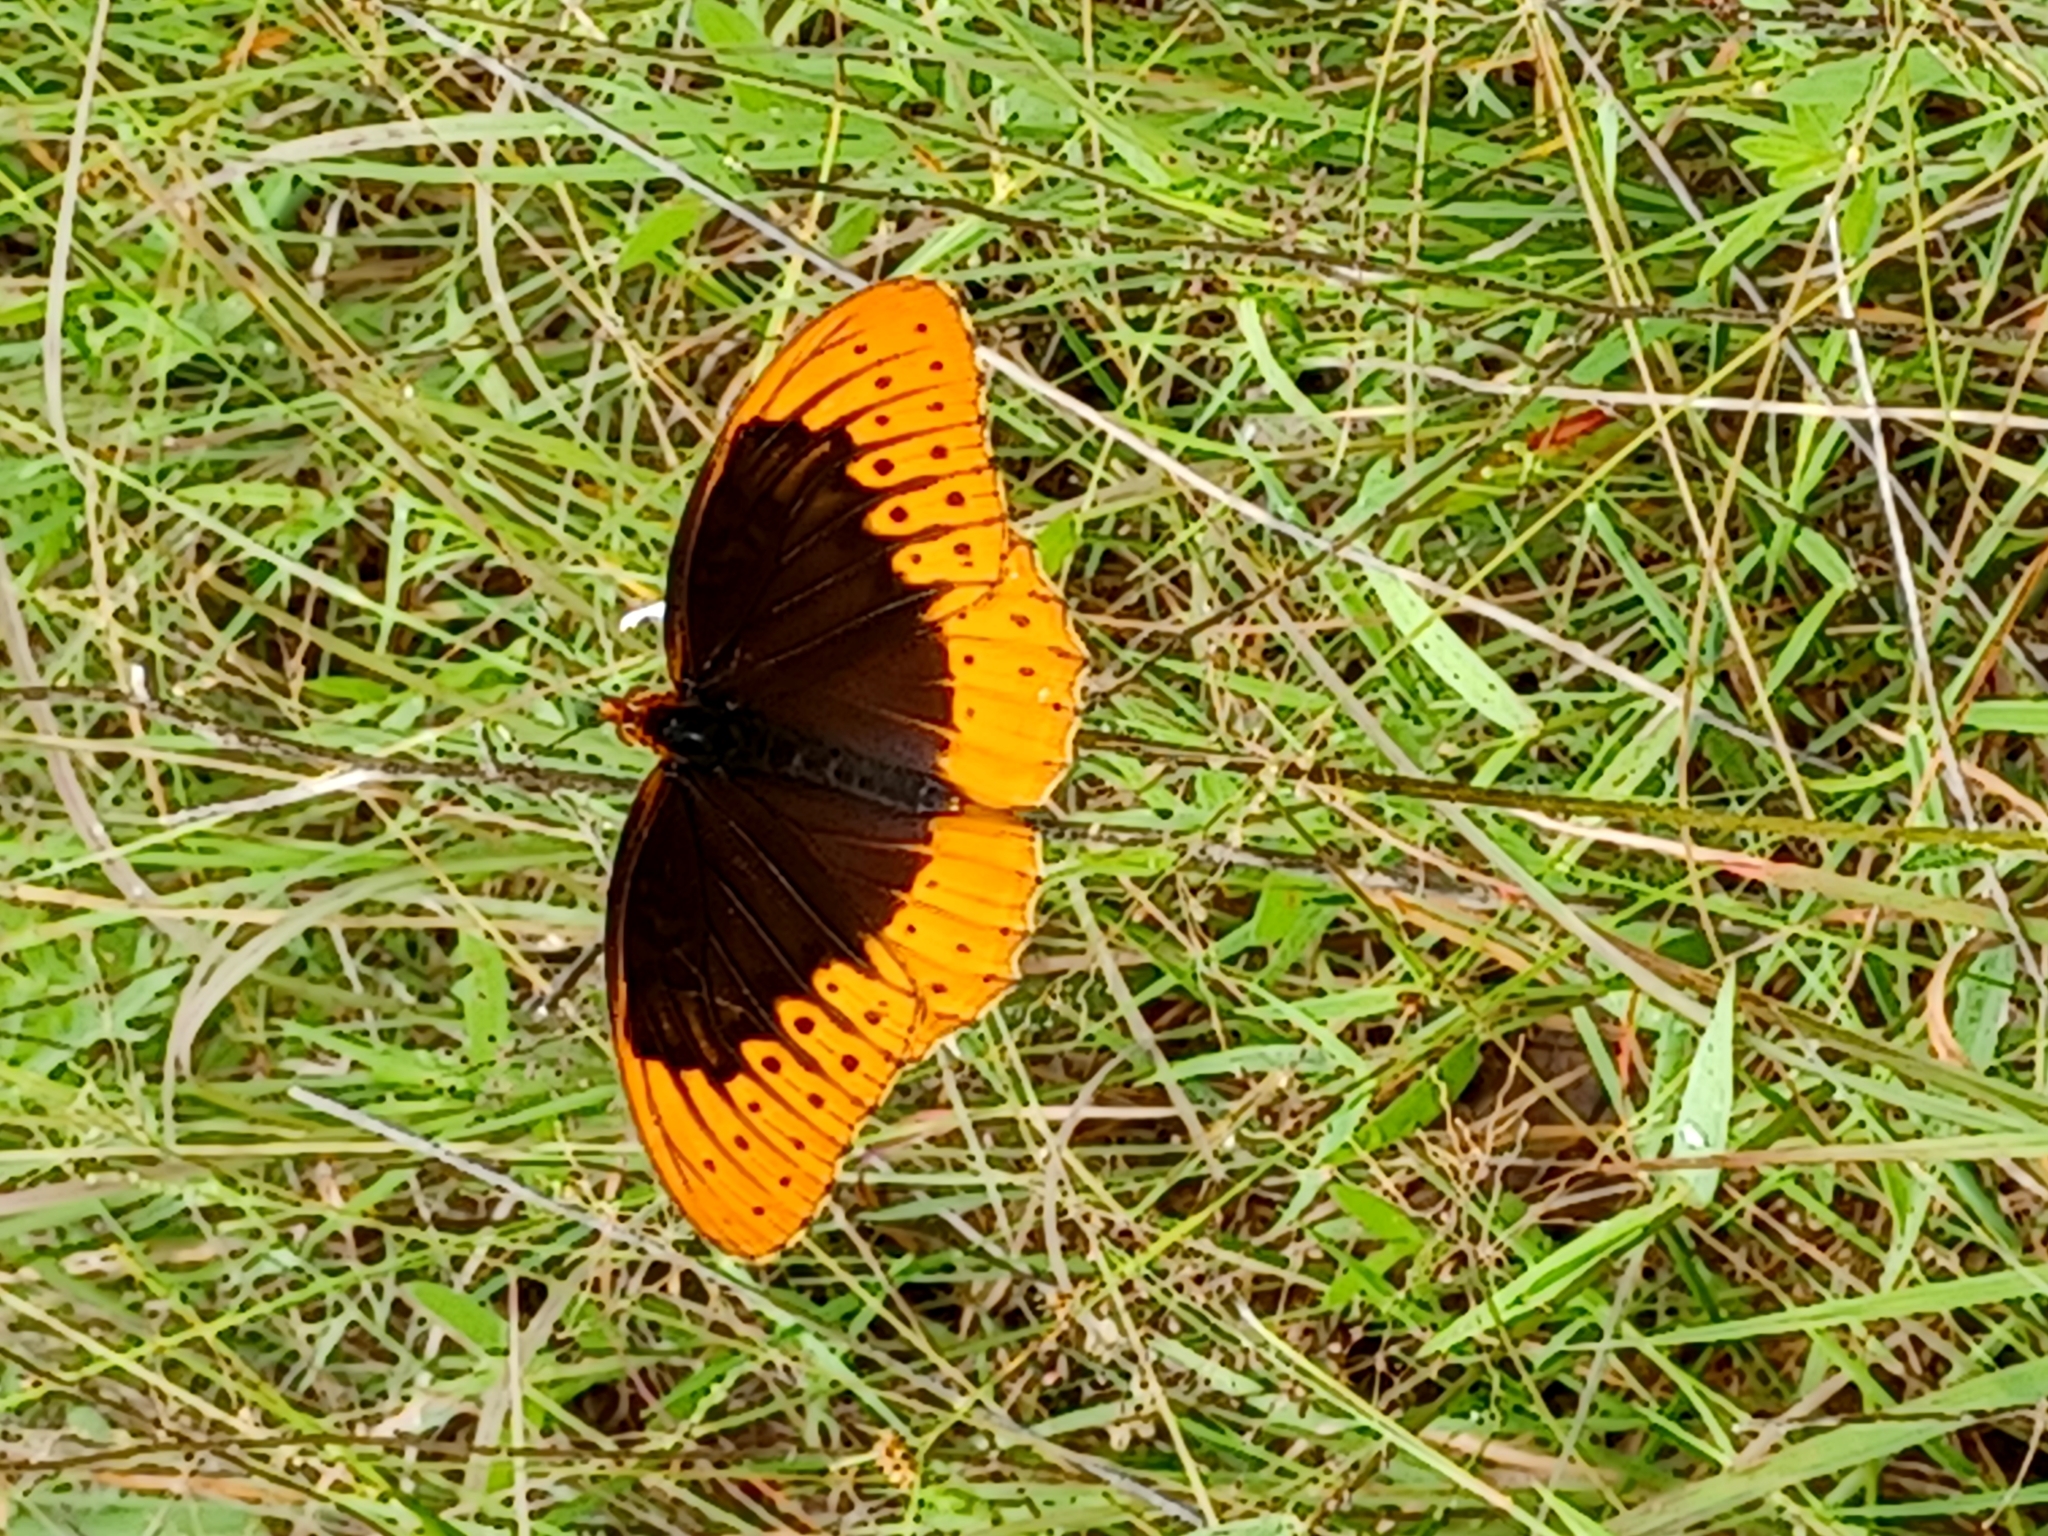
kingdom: Animalia
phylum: Arthropoda
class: Insecta
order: Lepidoptera
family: Nymphalidae
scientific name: Nymphalidae
